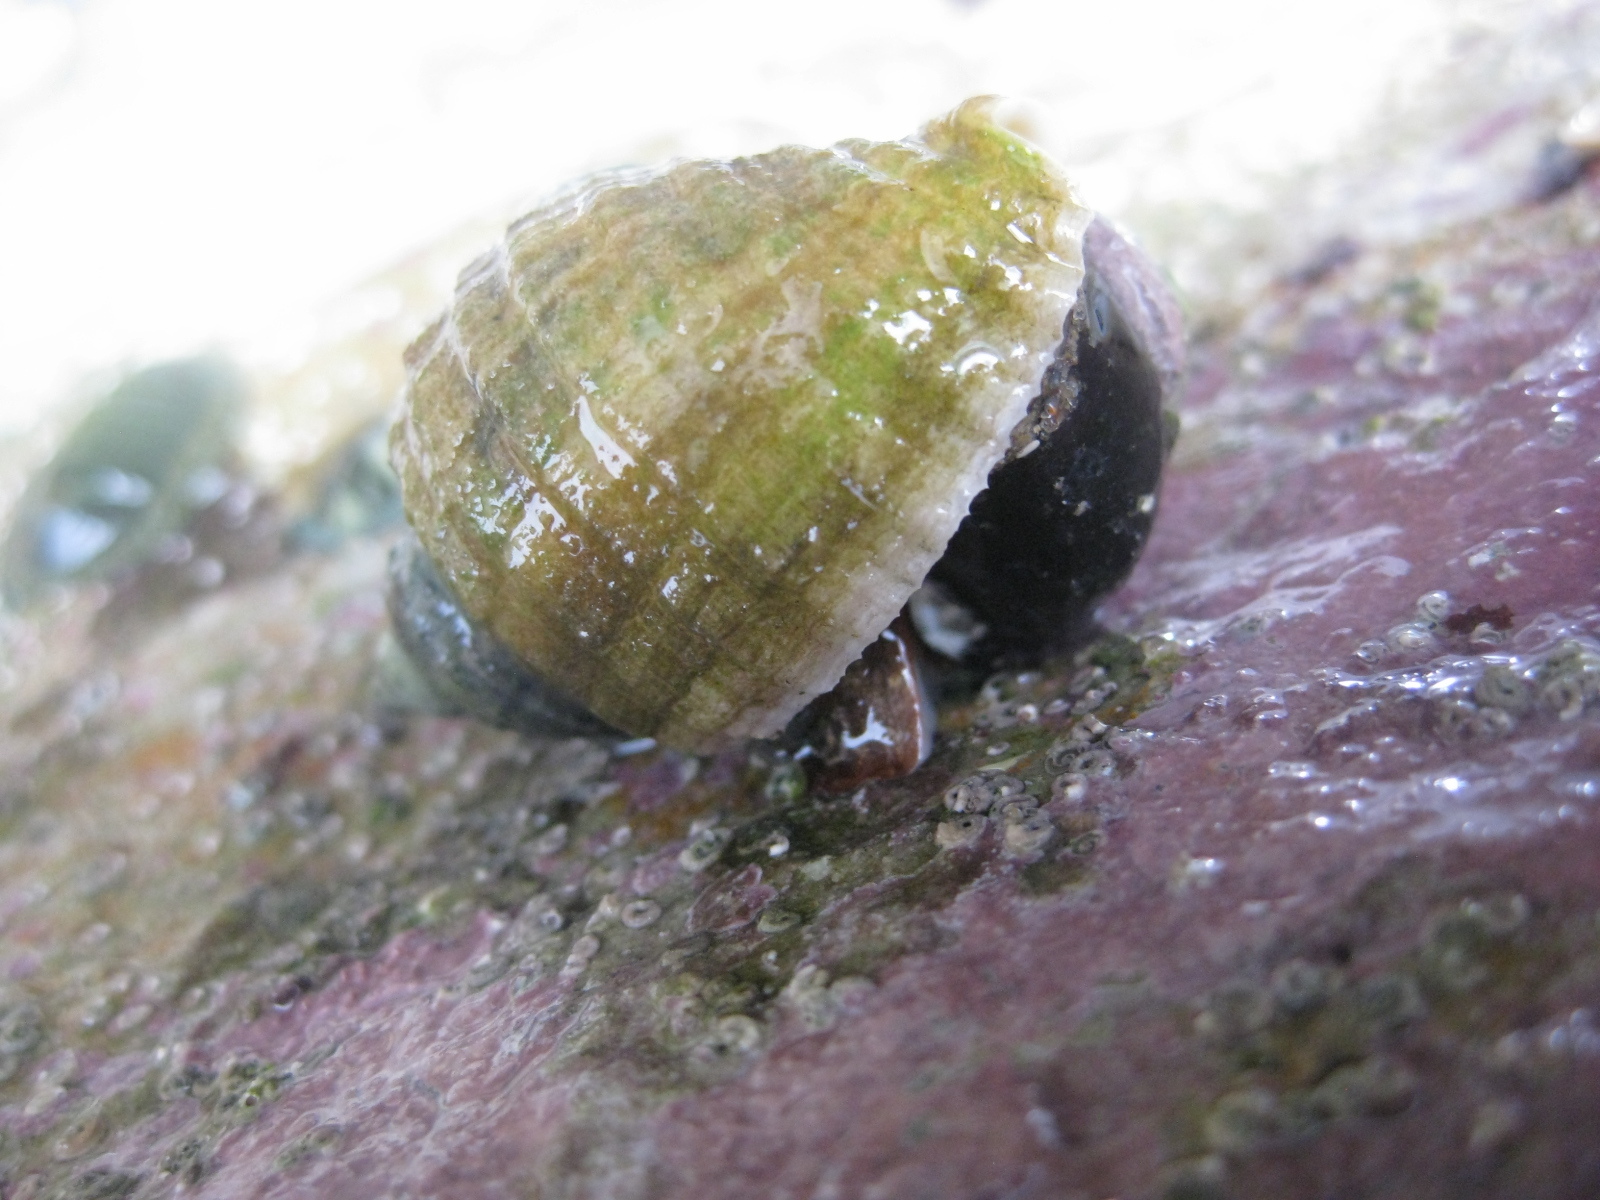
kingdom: Animalia
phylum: Mollusca
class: Gastropoda
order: Neogastropoda
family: Muricidae
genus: Dicathais
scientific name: Dicathais orbita
